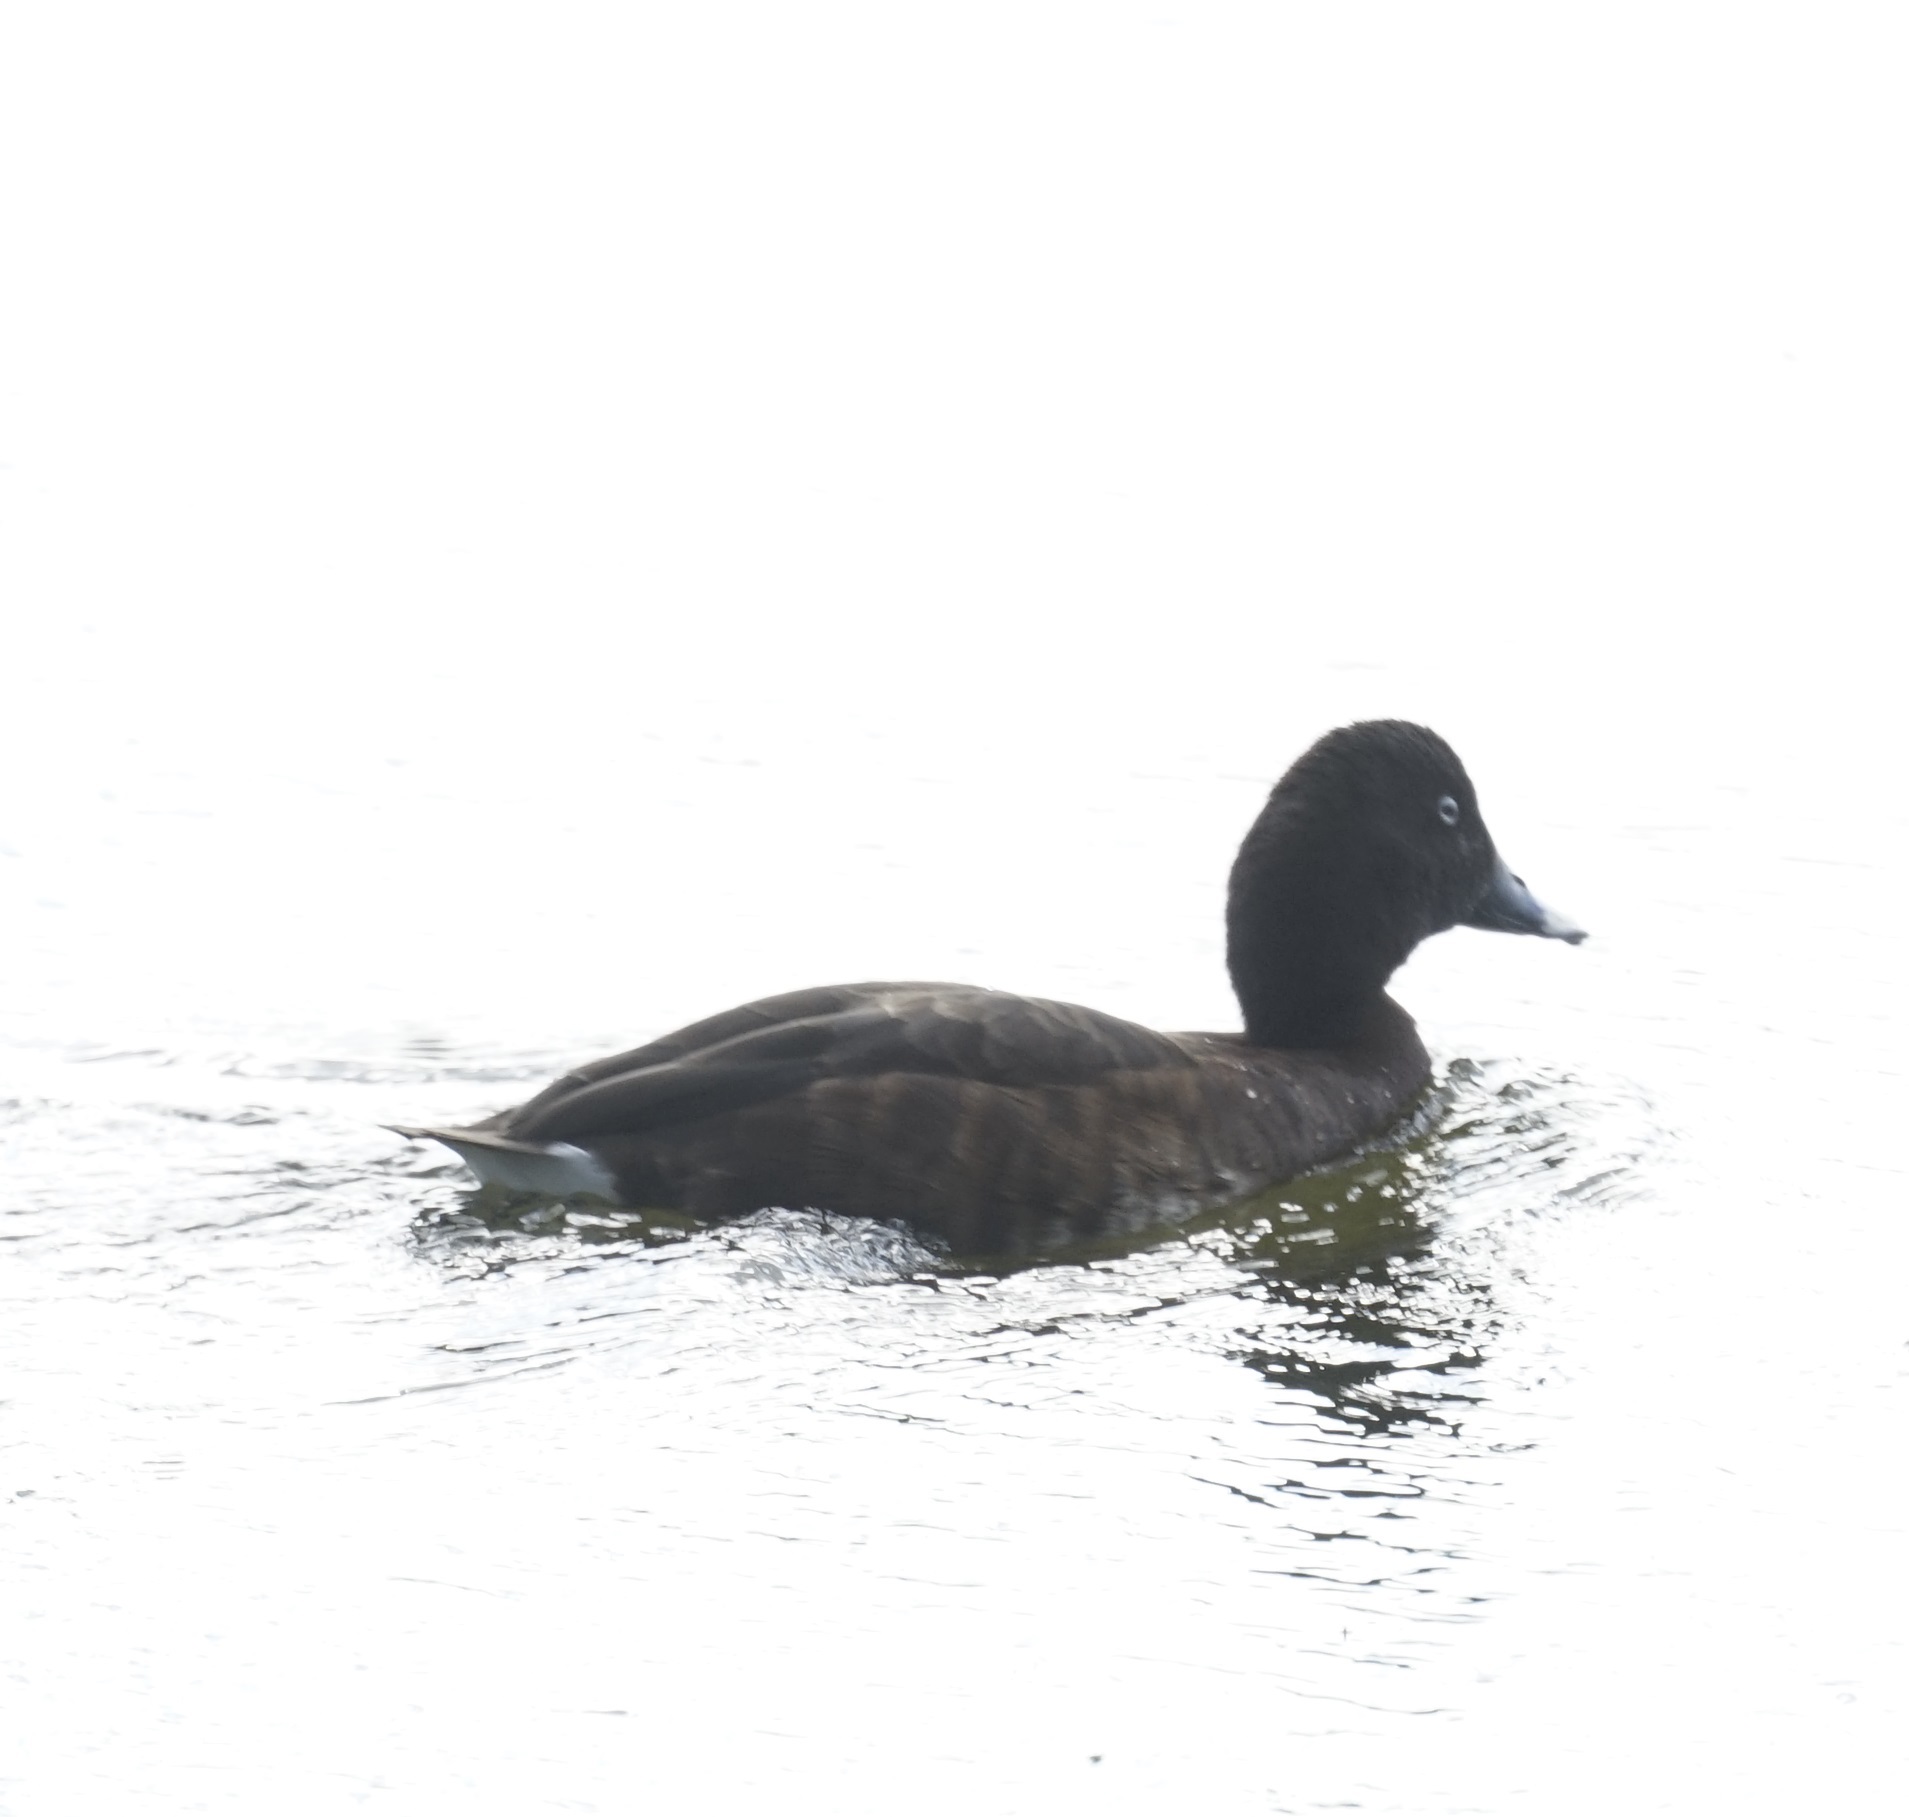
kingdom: Animalia
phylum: Chordata
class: Aves
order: Anseriformes
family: Anatidae
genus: Aythya
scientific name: Aythya australis
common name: Hardhead
